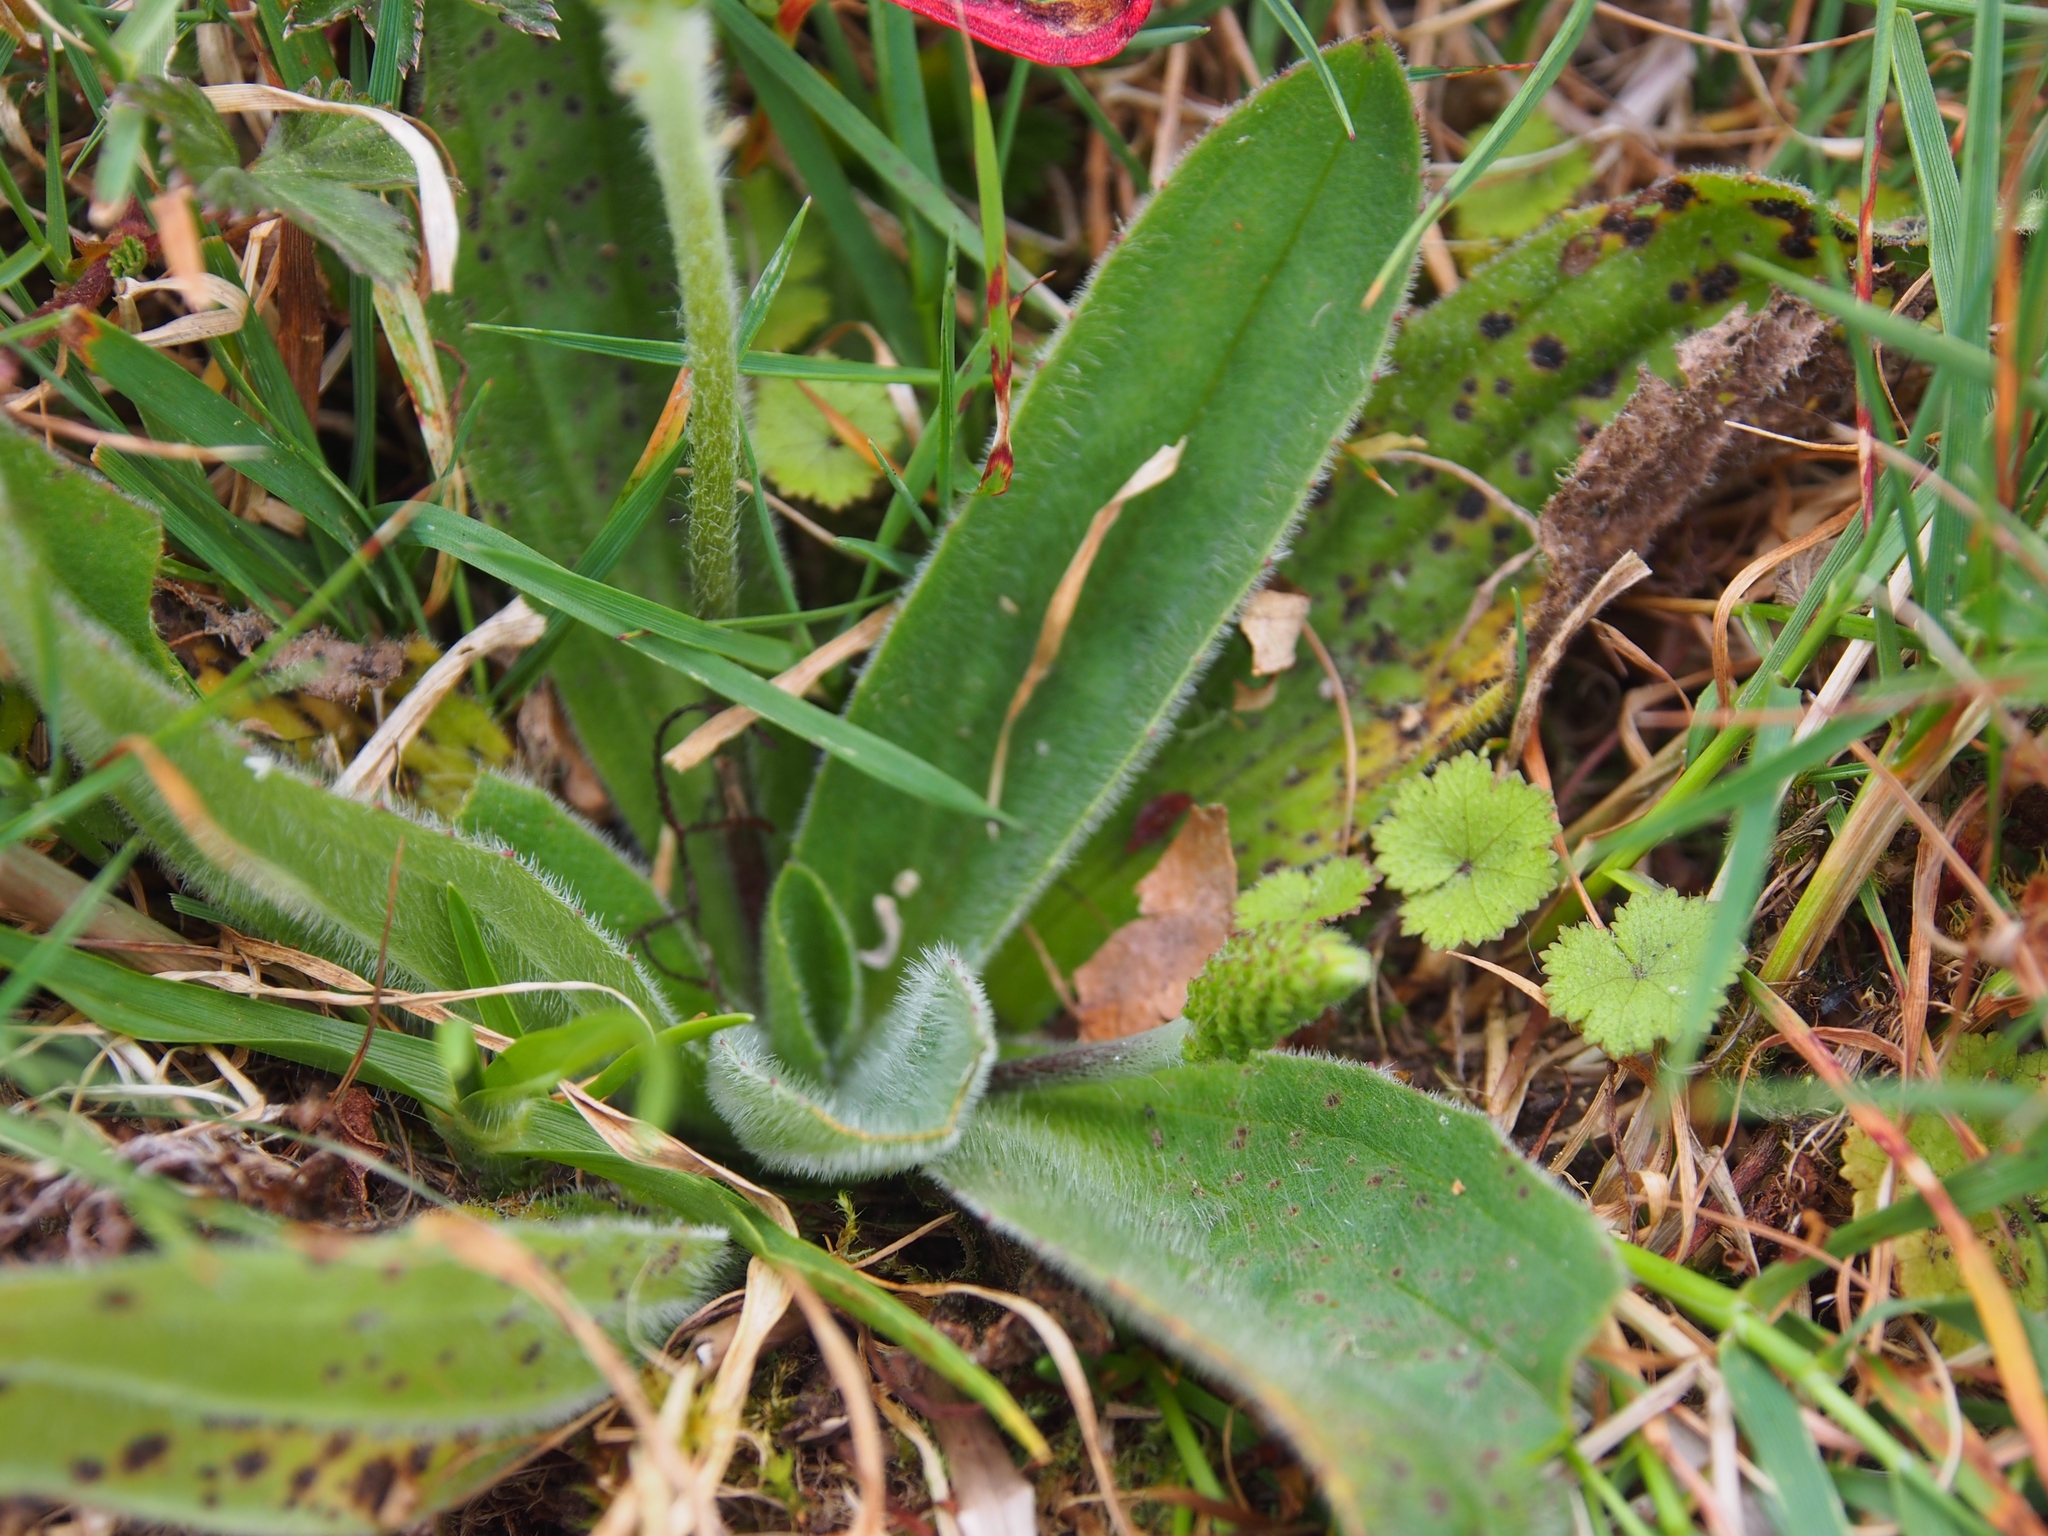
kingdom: Plantae
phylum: Tracheophyta
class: Magnoliopsida
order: Lamiales
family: Plantaginaceae
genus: Plantago
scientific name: Plantago australis
